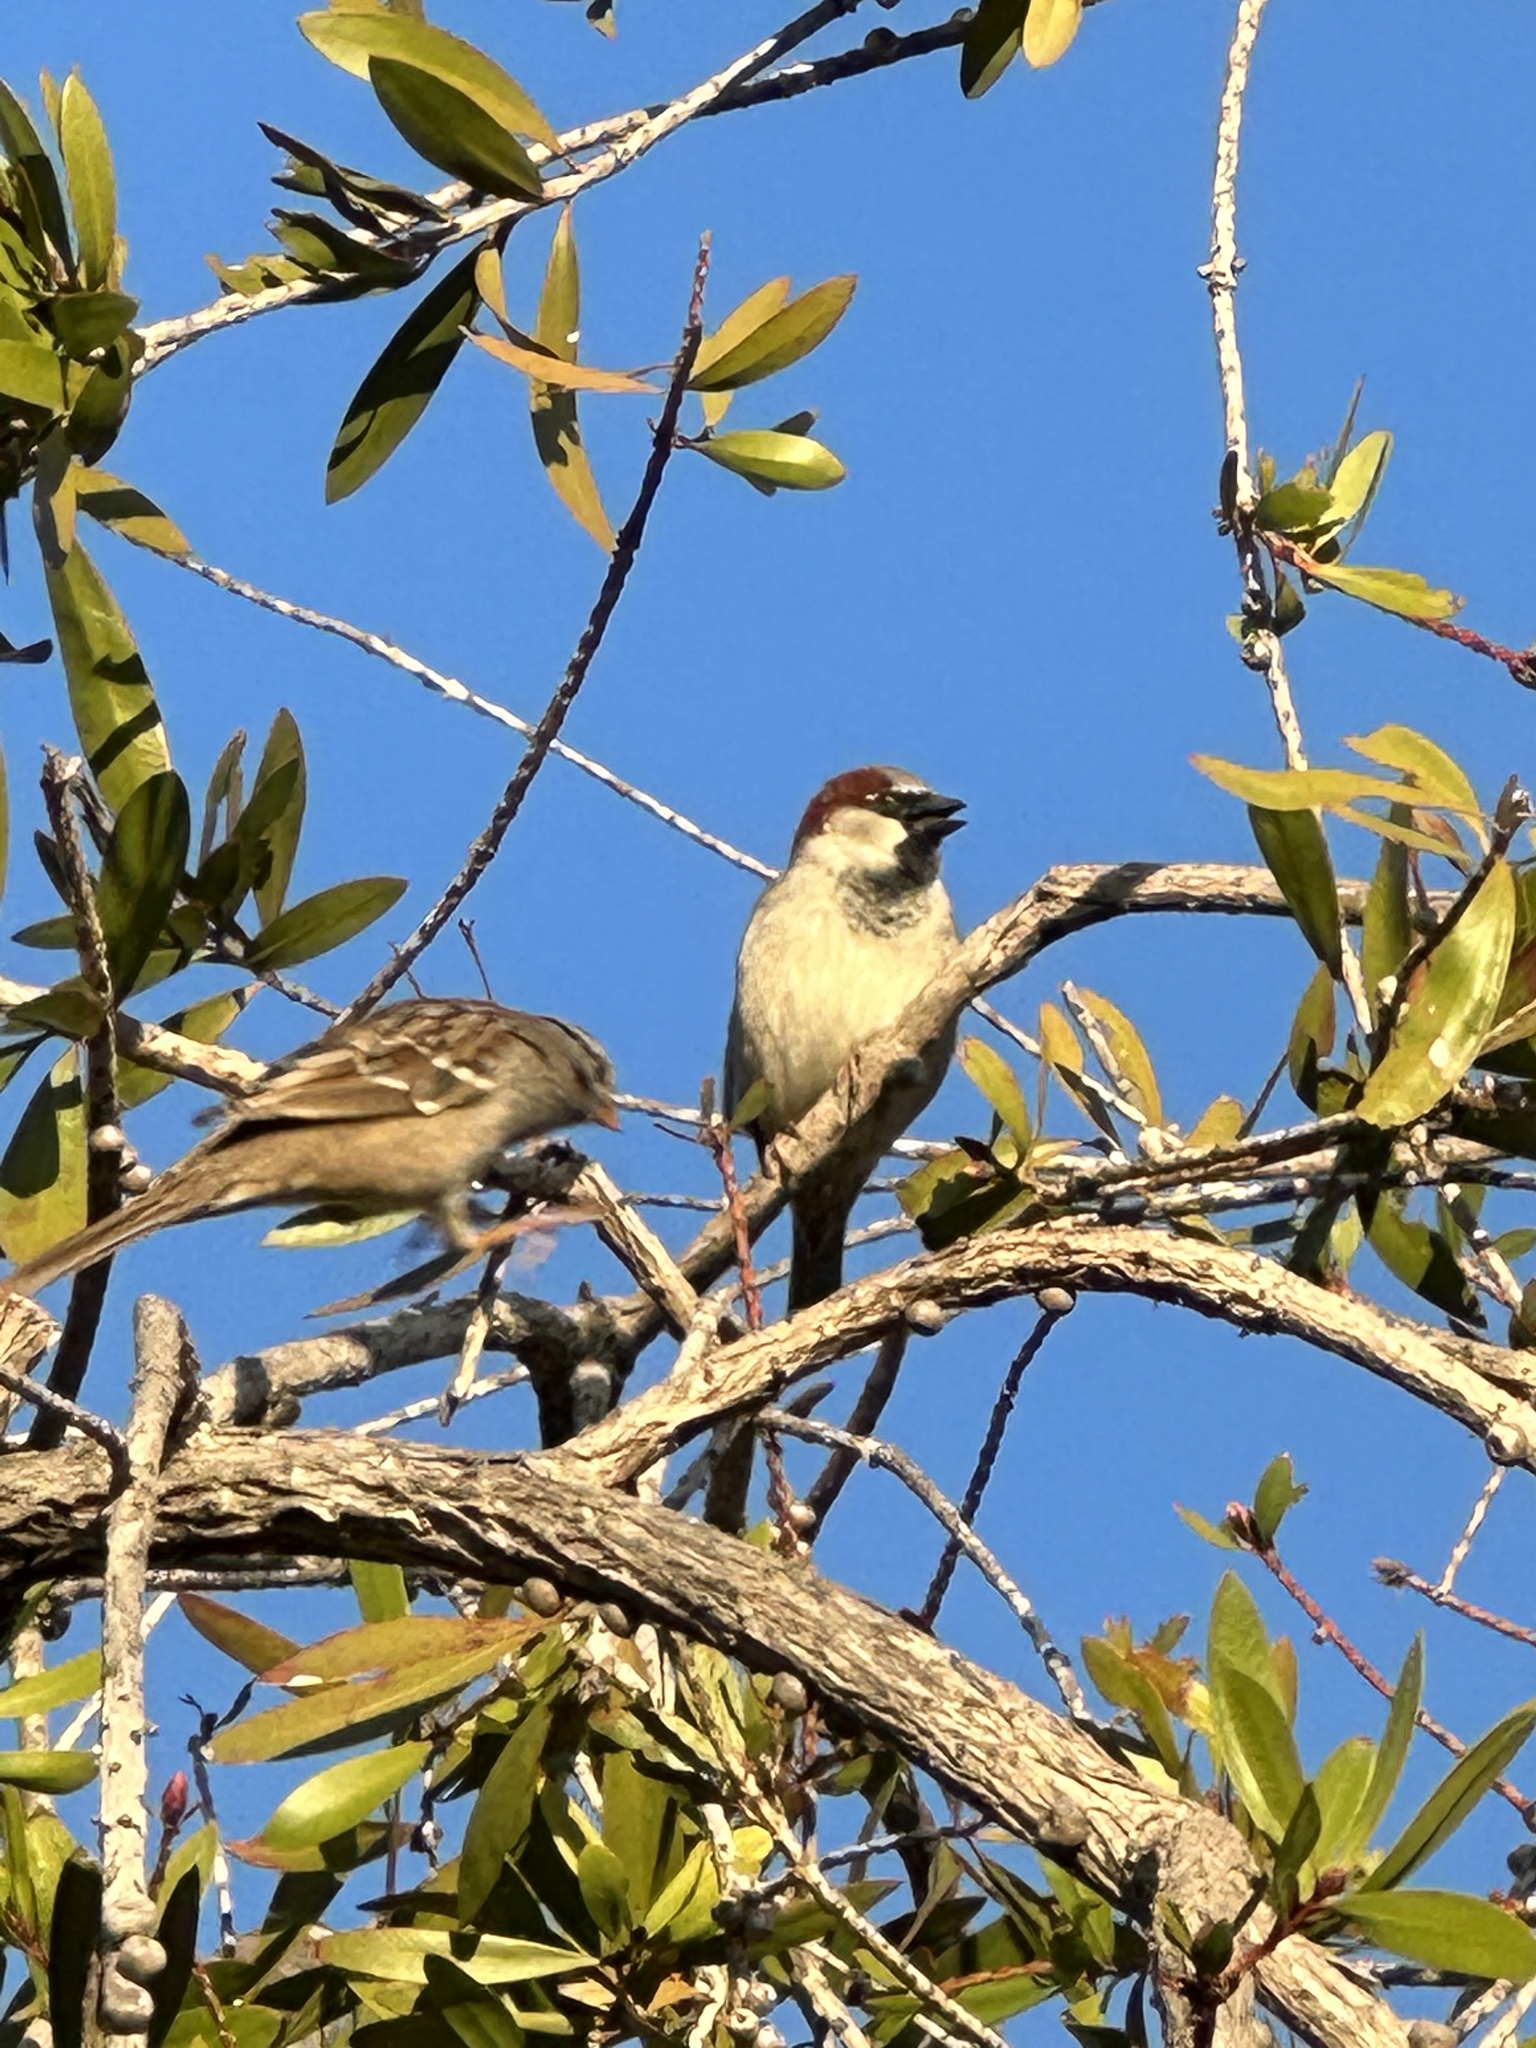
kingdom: Animalia
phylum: Chordata
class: Aves
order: Passeriformes
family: Passeridae
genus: Passer
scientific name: Passer domesticus
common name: House sparrow
